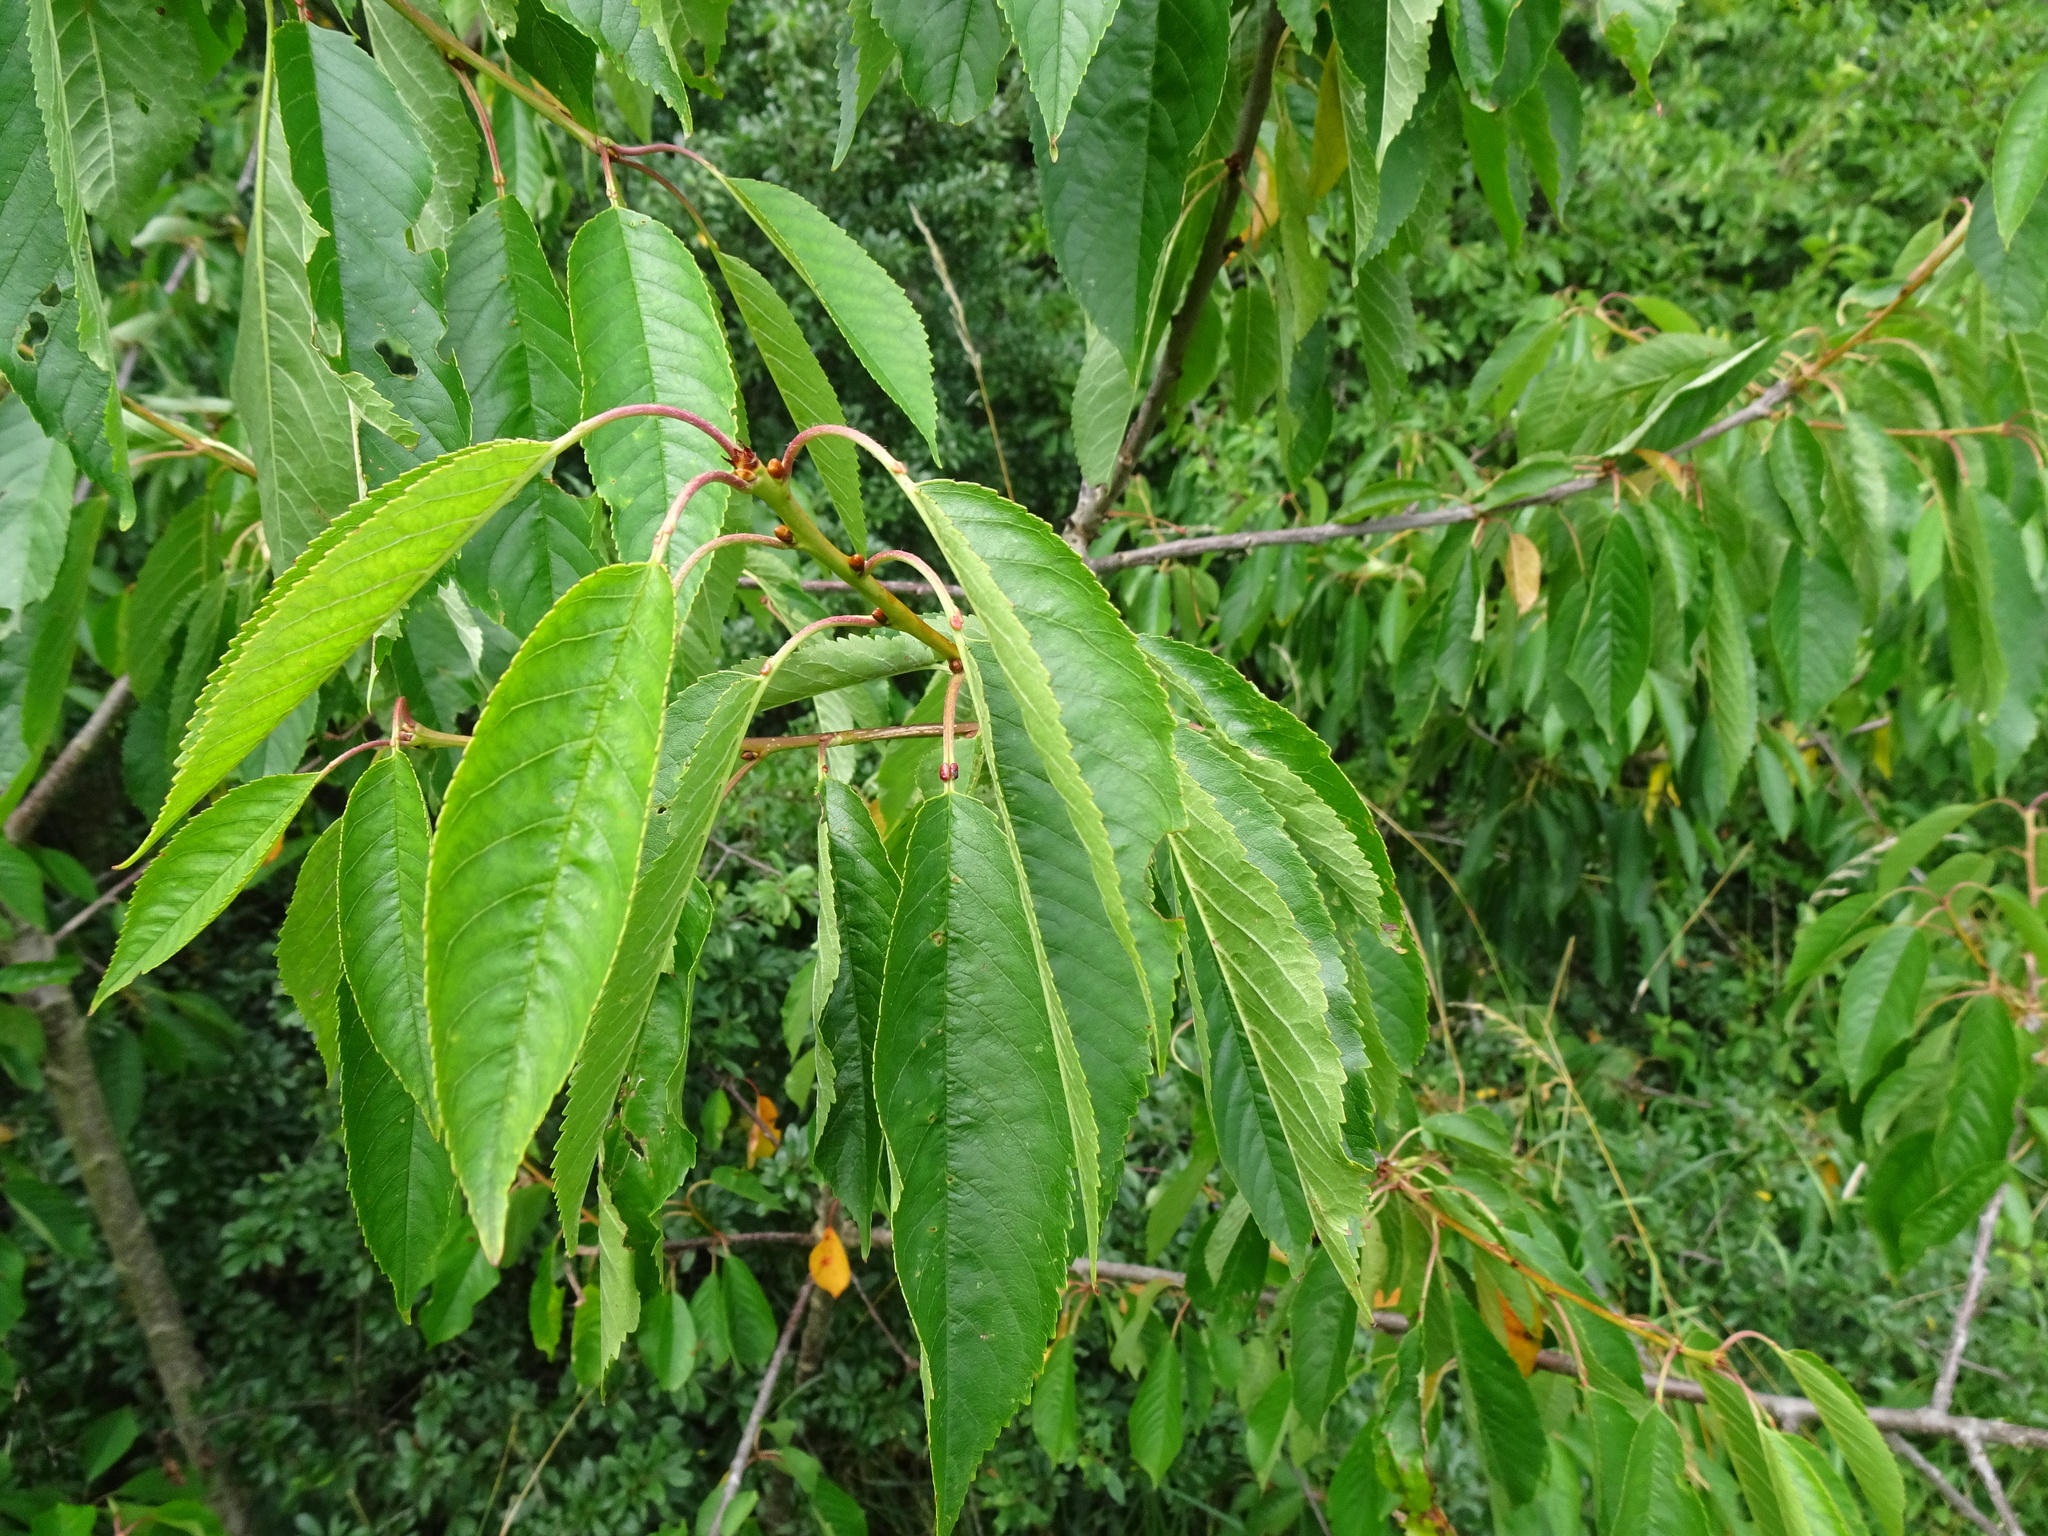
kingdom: Plantae
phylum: Tracheophyta
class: Magnoliopsida
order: Rosales
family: Rosaceae
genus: Prunus
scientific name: Prunus avium
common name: Sweet cherry
